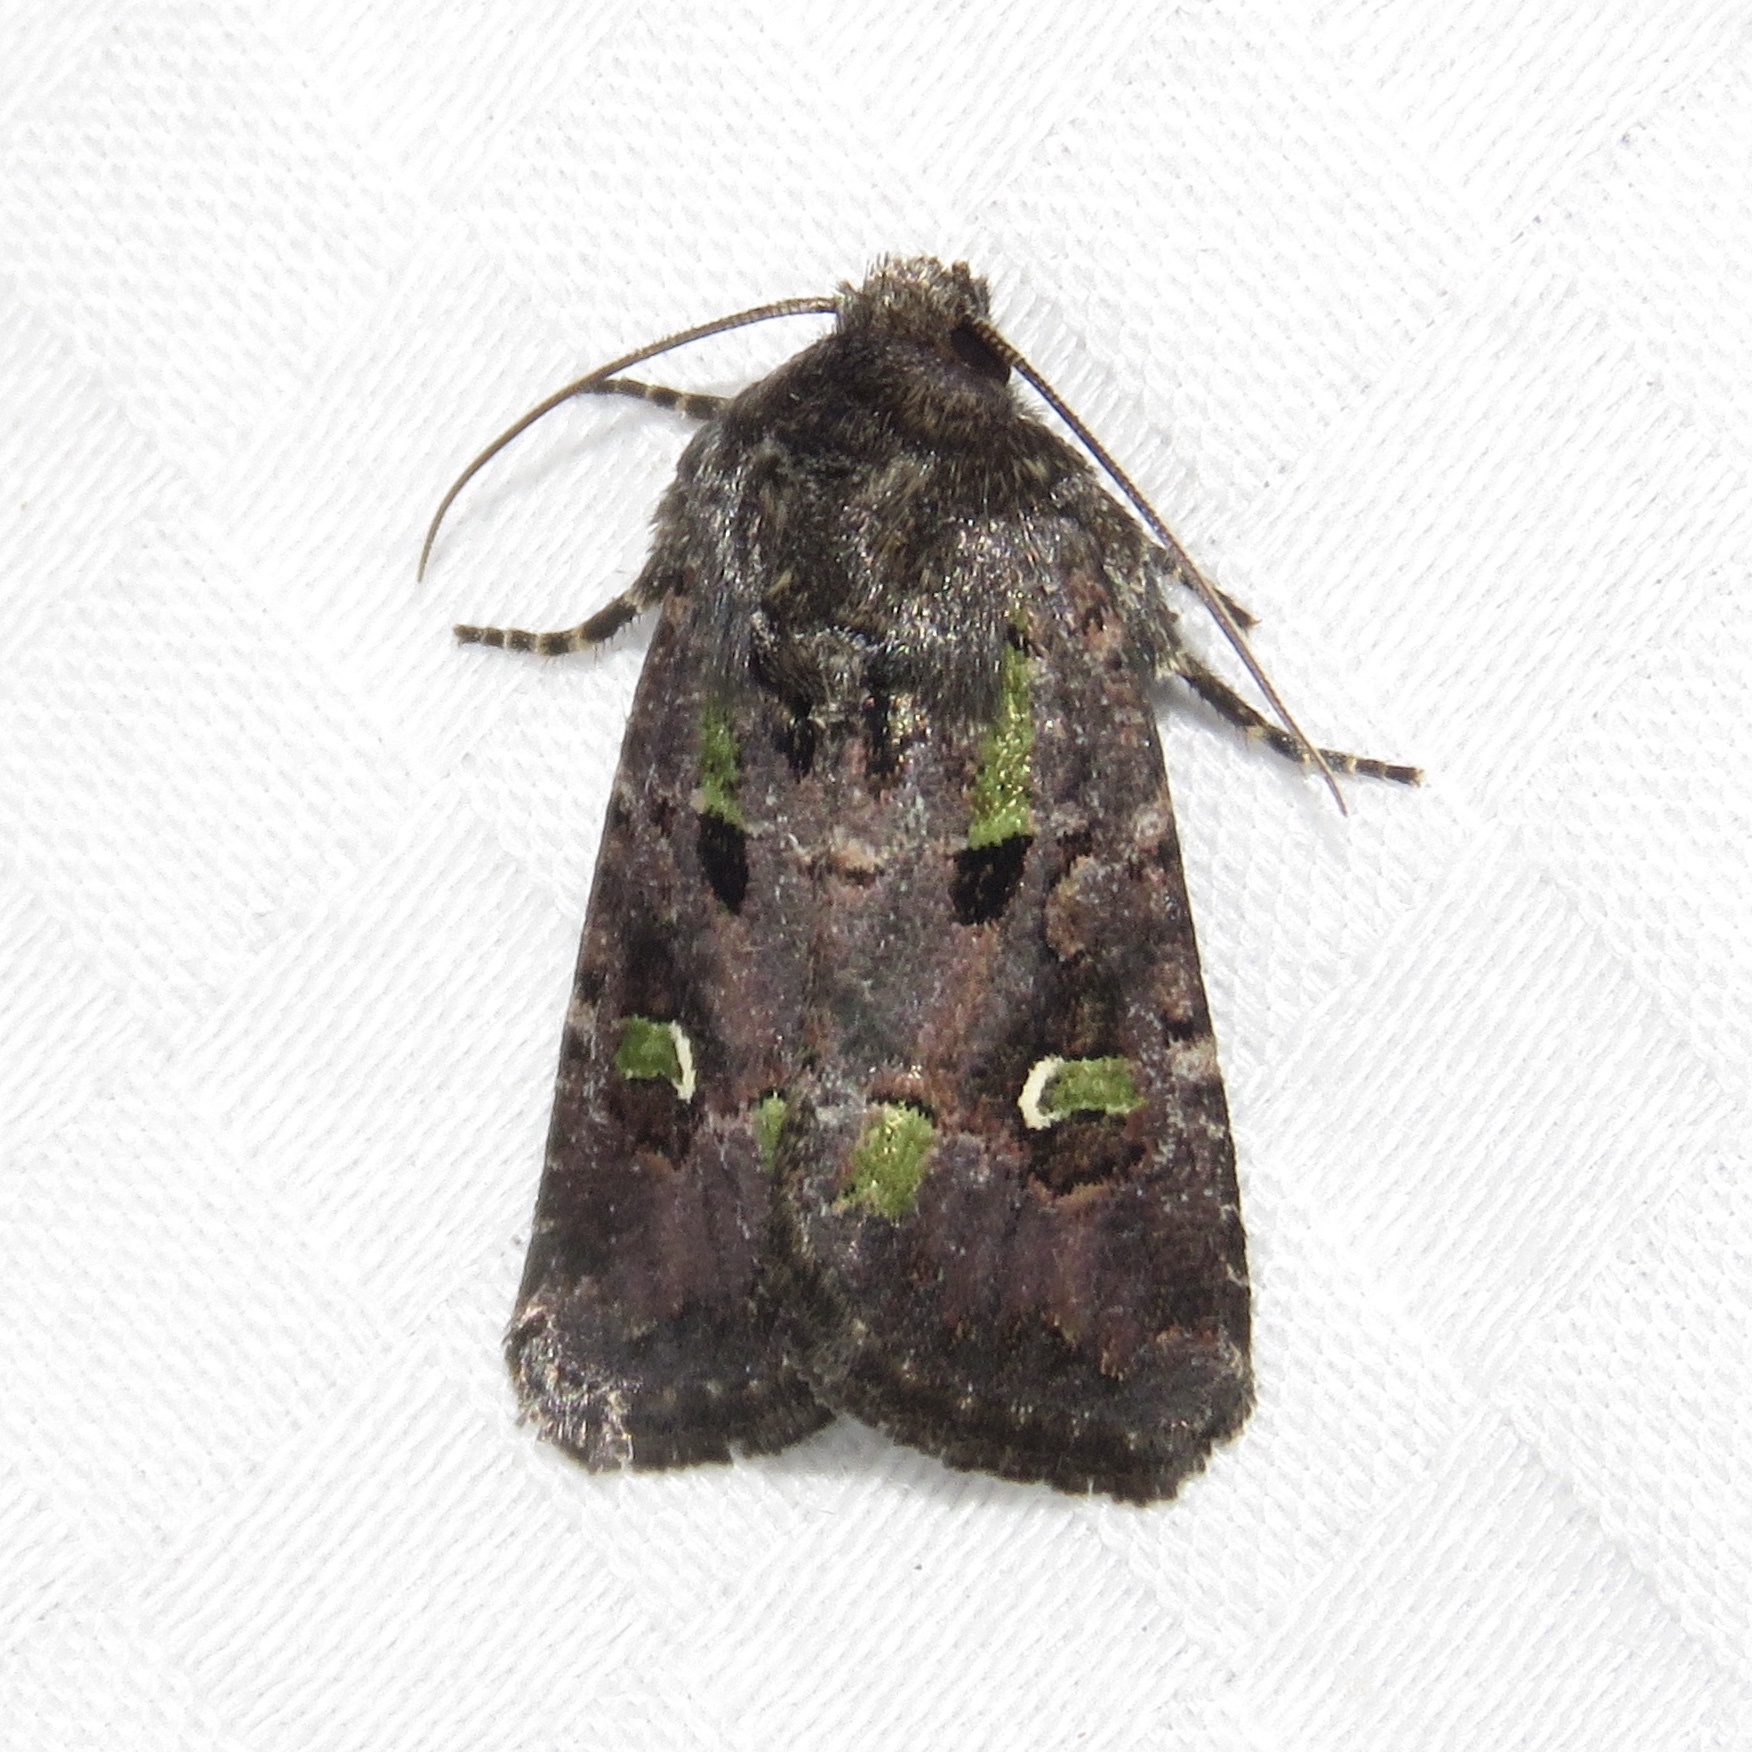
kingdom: Animalia
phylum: Arthropoda
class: Insecta
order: Lepidoptera
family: Noctuidae
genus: Lacinipolia
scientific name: Lacinipolia renigera
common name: Kidney-spotted minor
